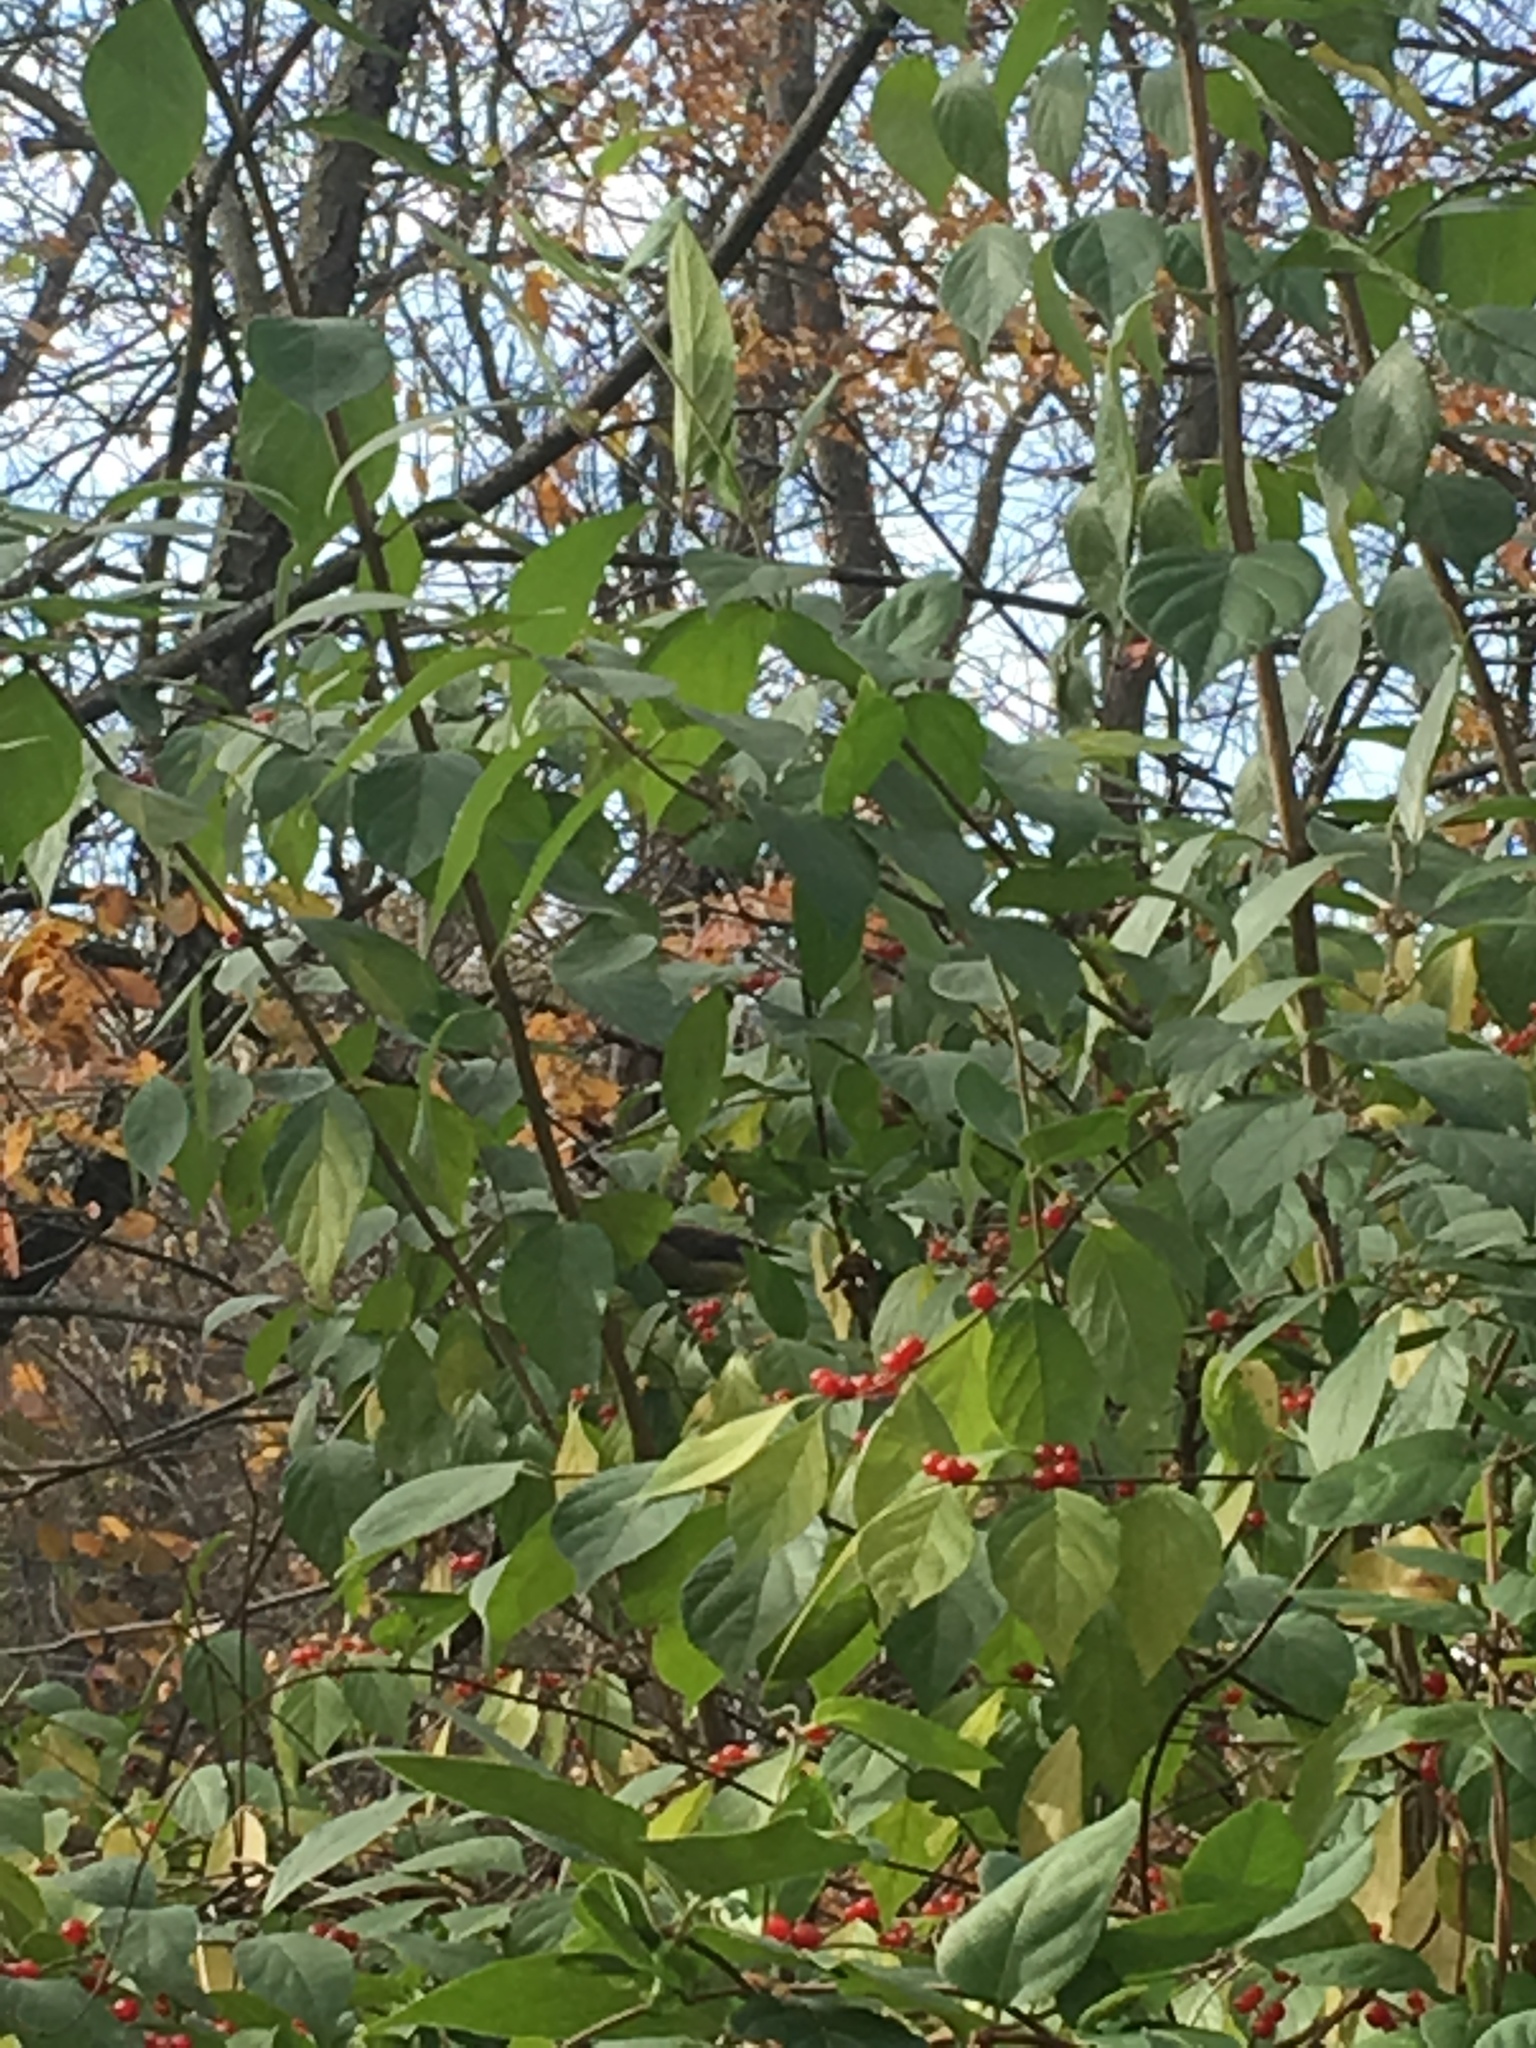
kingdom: Animalia
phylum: Chordata
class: Aves
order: Passeriformes
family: Bombycillidae
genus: Bombycilla
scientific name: Bombycilla cedrorum
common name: Cedar waxwing
